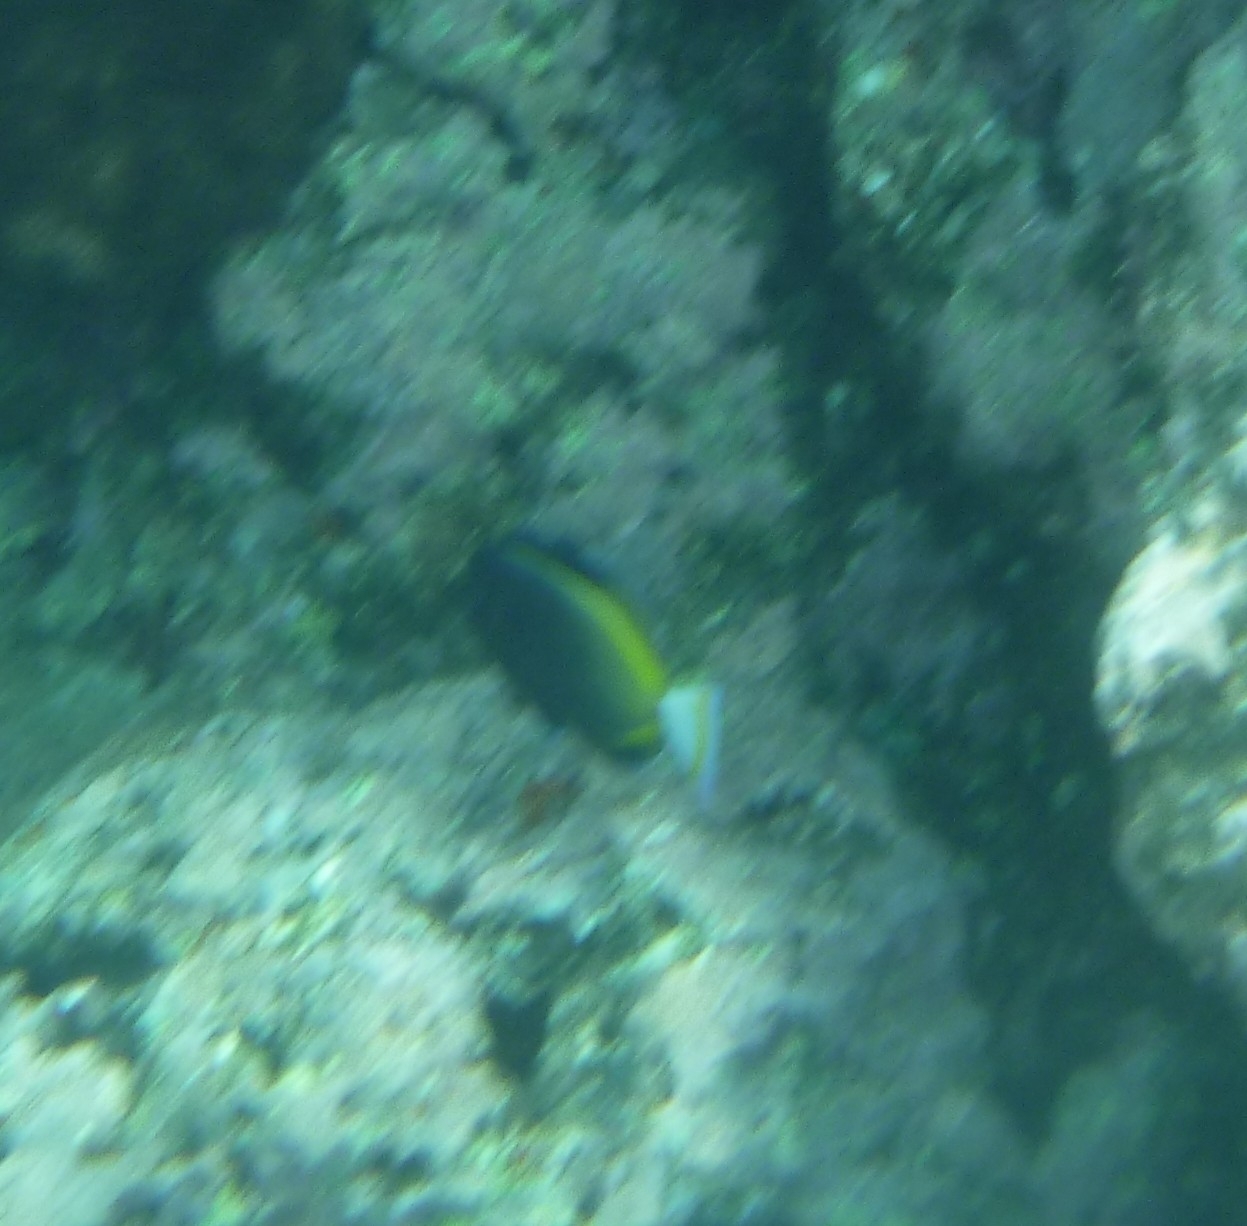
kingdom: Animalia
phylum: Chordata
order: Perciformes
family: Acanthuridae
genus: Acanthurus
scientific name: Acanthurus nigricans
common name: Whitecheek surgeonfish
